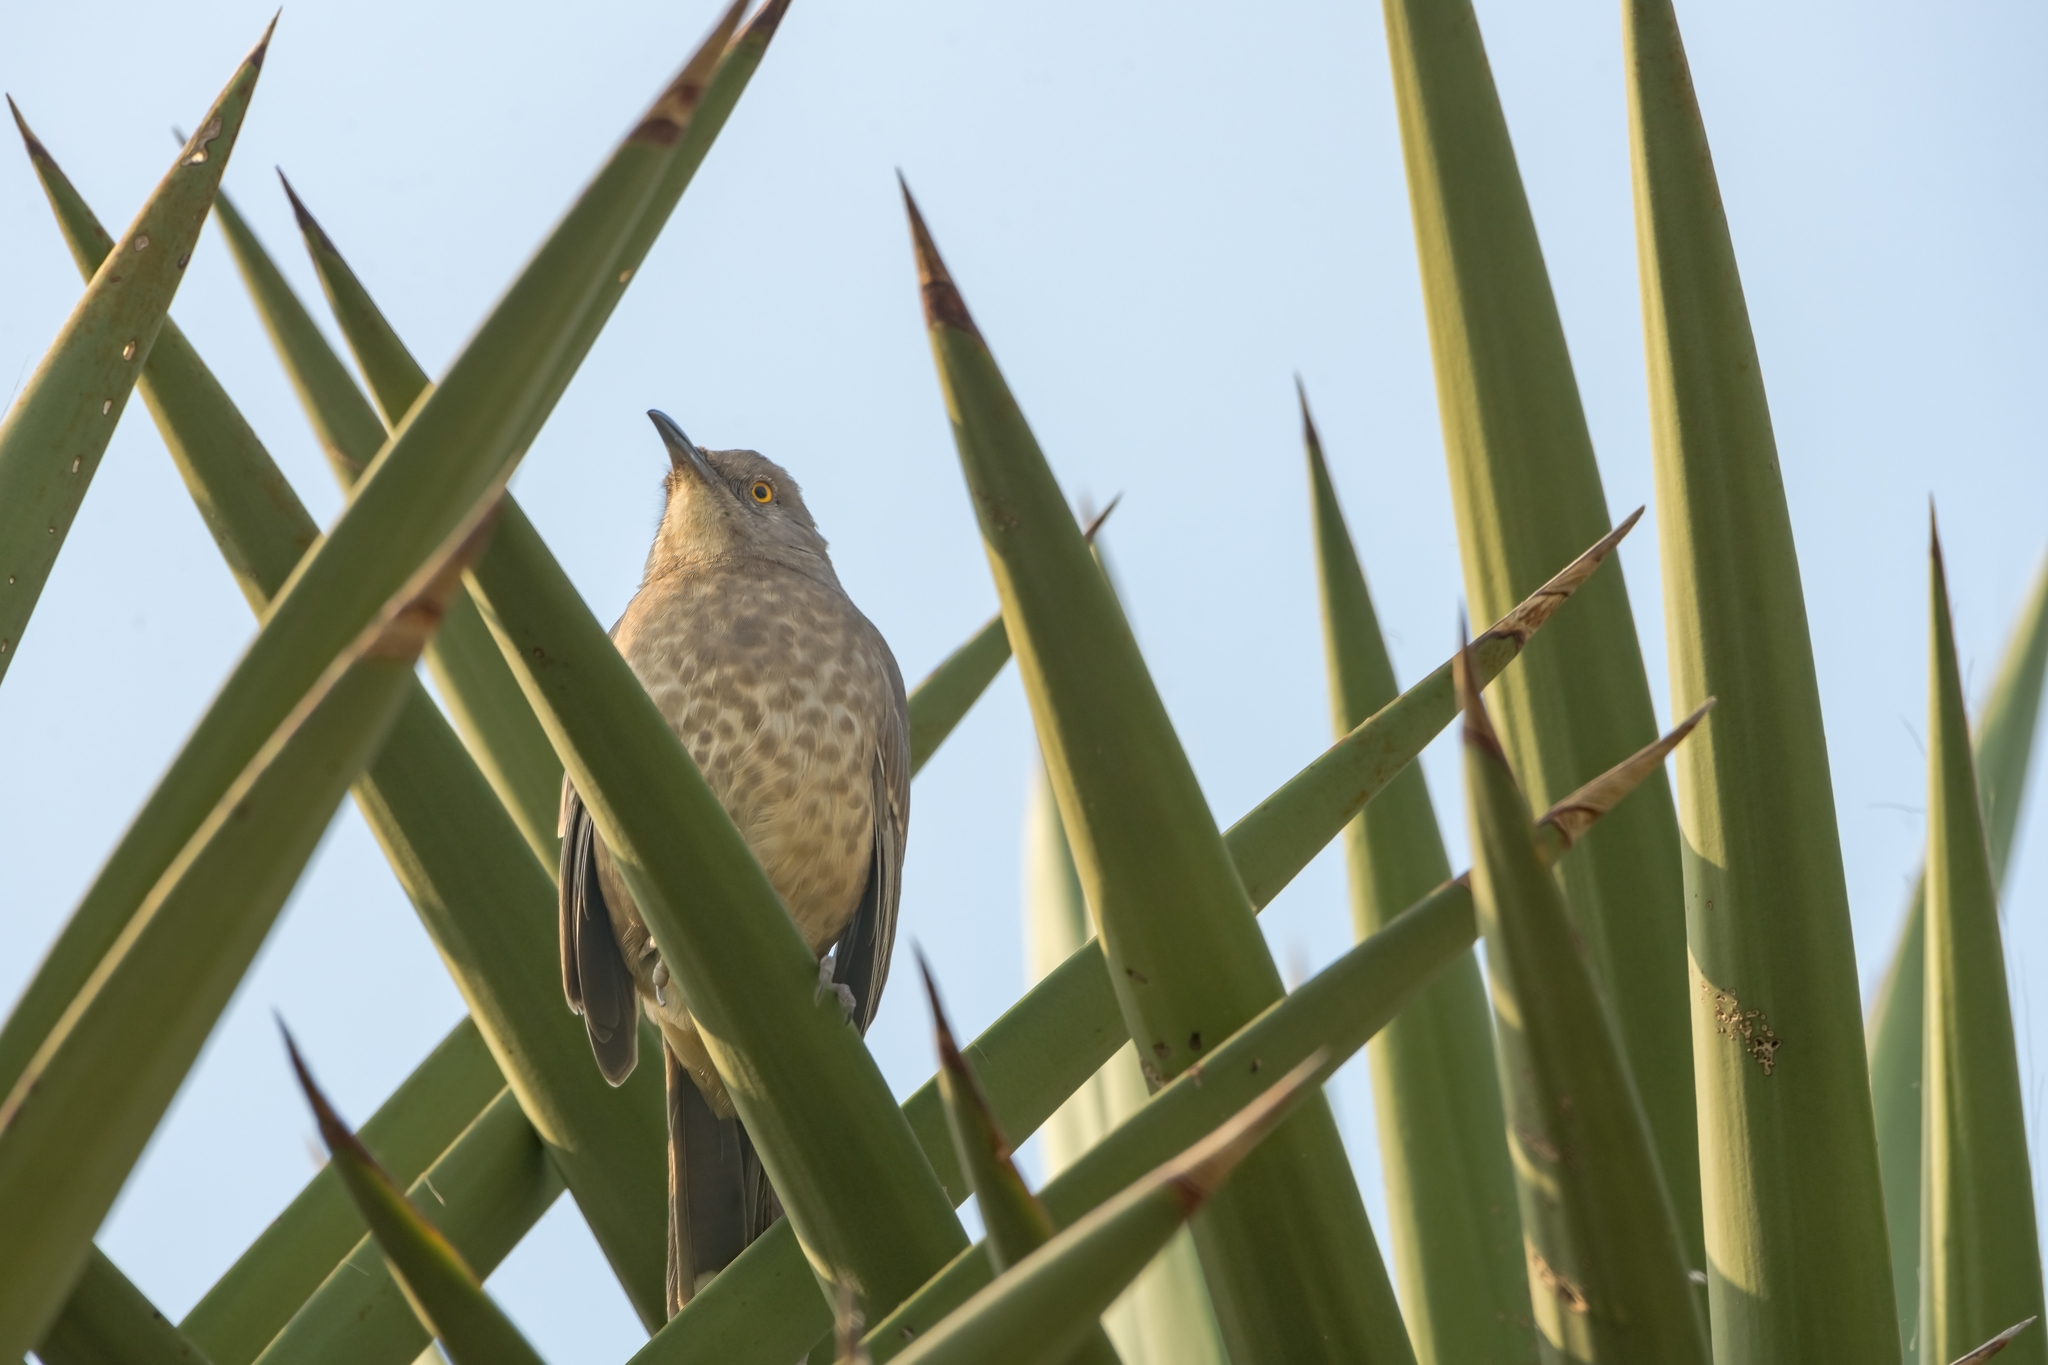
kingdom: Animalia
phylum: Chordata
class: Aves
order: Passeriformes
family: Mimidae
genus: Toxostoma
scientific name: Toxostoma curvirostre
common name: Curve-billed thrasher
